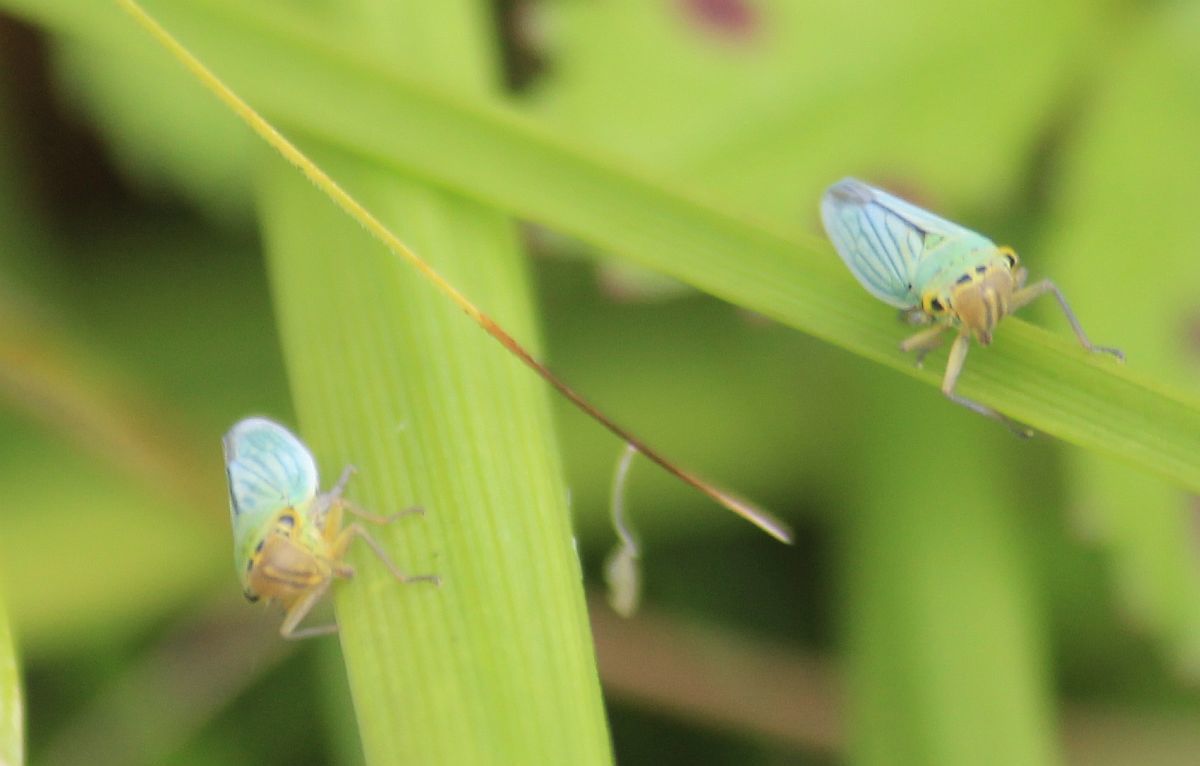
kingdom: Animalia
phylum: Arthropoda
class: Insecta
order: Hemiptera
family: Cicadellidae
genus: Cicadella
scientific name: Cicadella viridis
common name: Leafhopper
